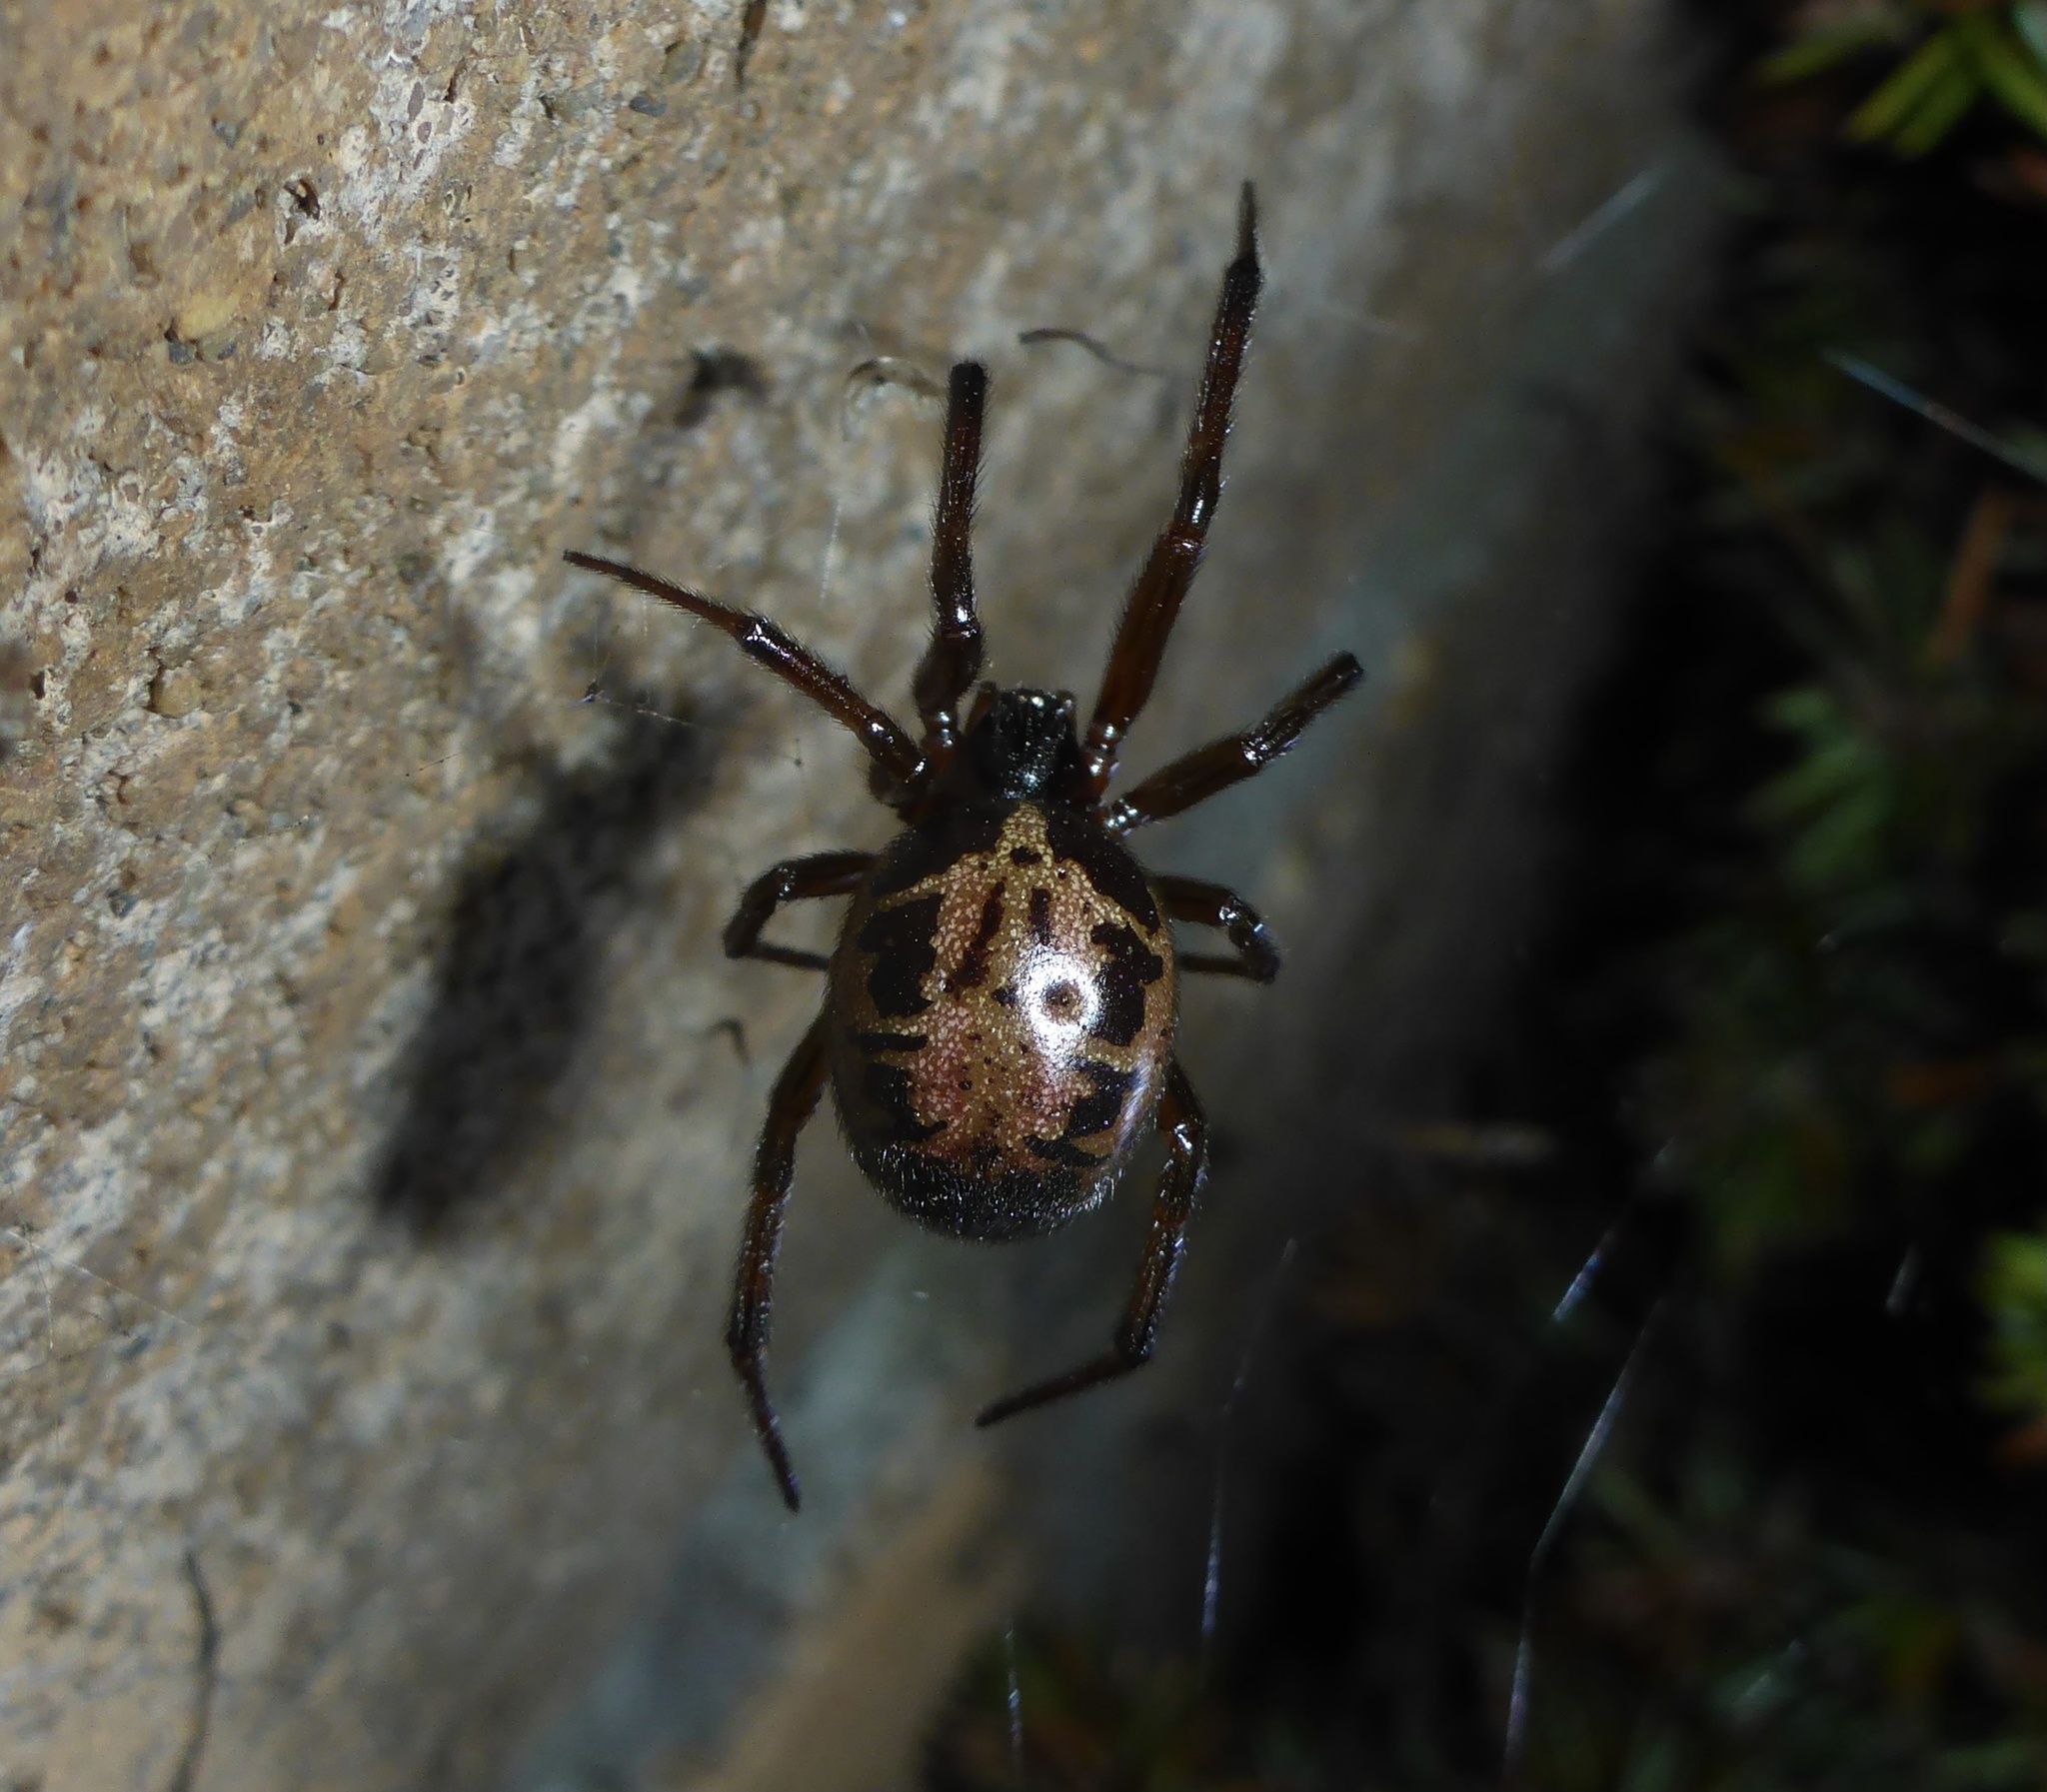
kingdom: Animalia
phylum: Arthropoda
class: Arachnida
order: Araneae
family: Theridiidae
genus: Steatoda
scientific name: Steatoda nobilis
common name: Cobweb weaver
